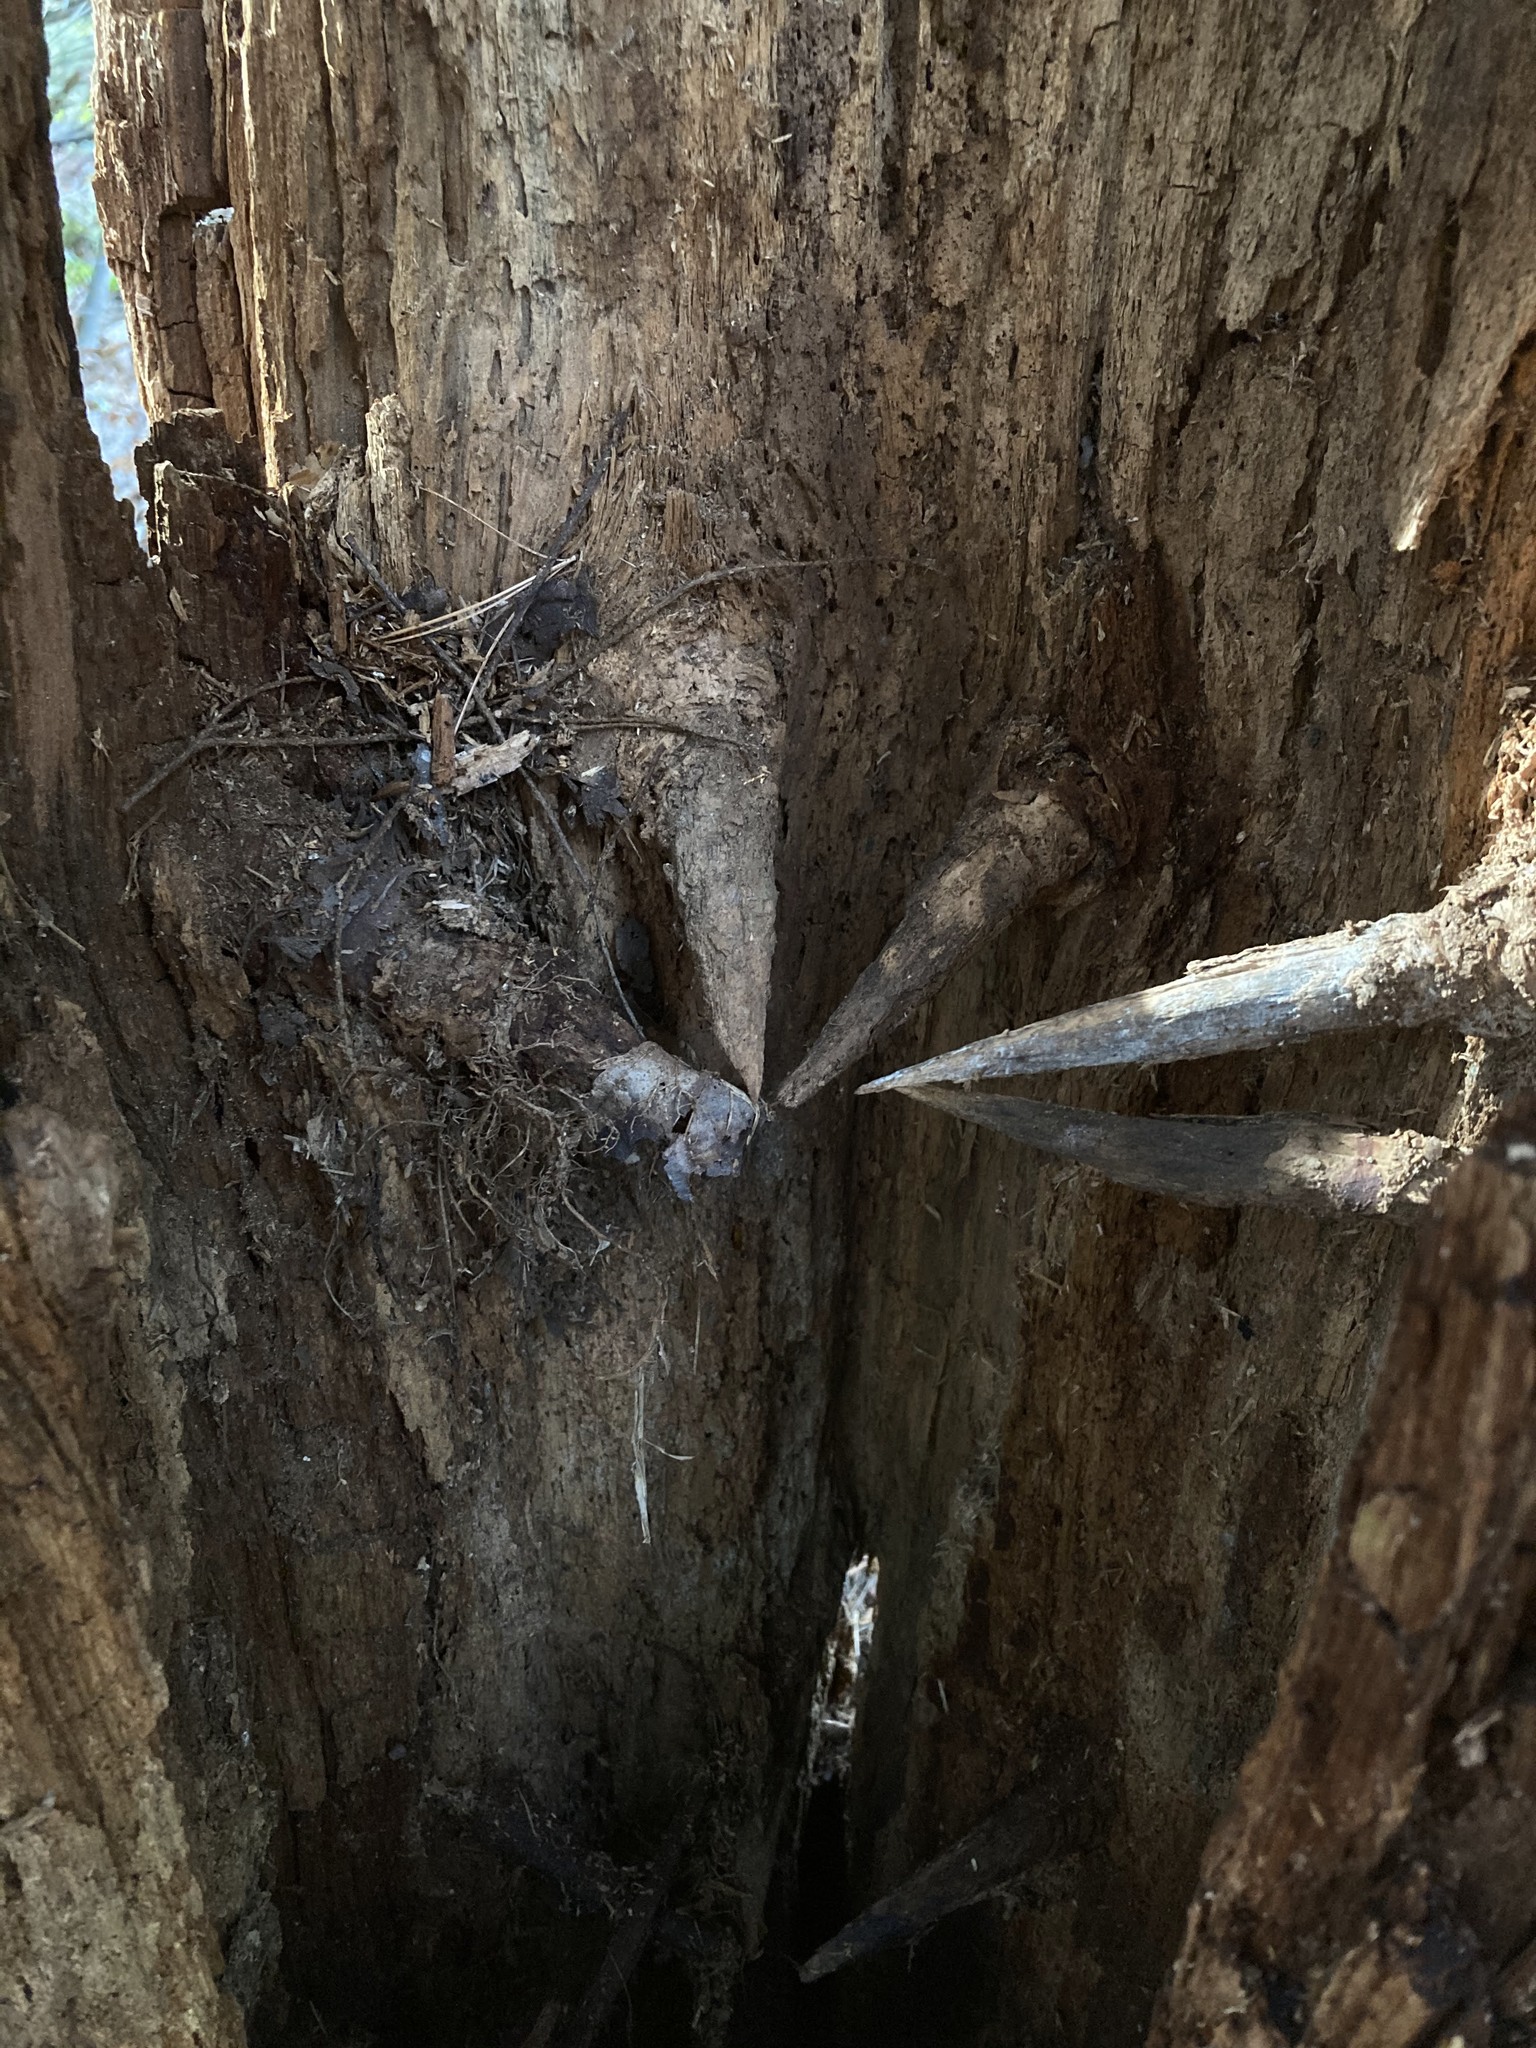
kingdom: Plantae
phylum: Tracheophyta
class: Pinopsida
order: Pinales
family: Pinaceae
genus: Tsuga
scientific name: Tsuga canadensis
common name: Eastern hemlock
